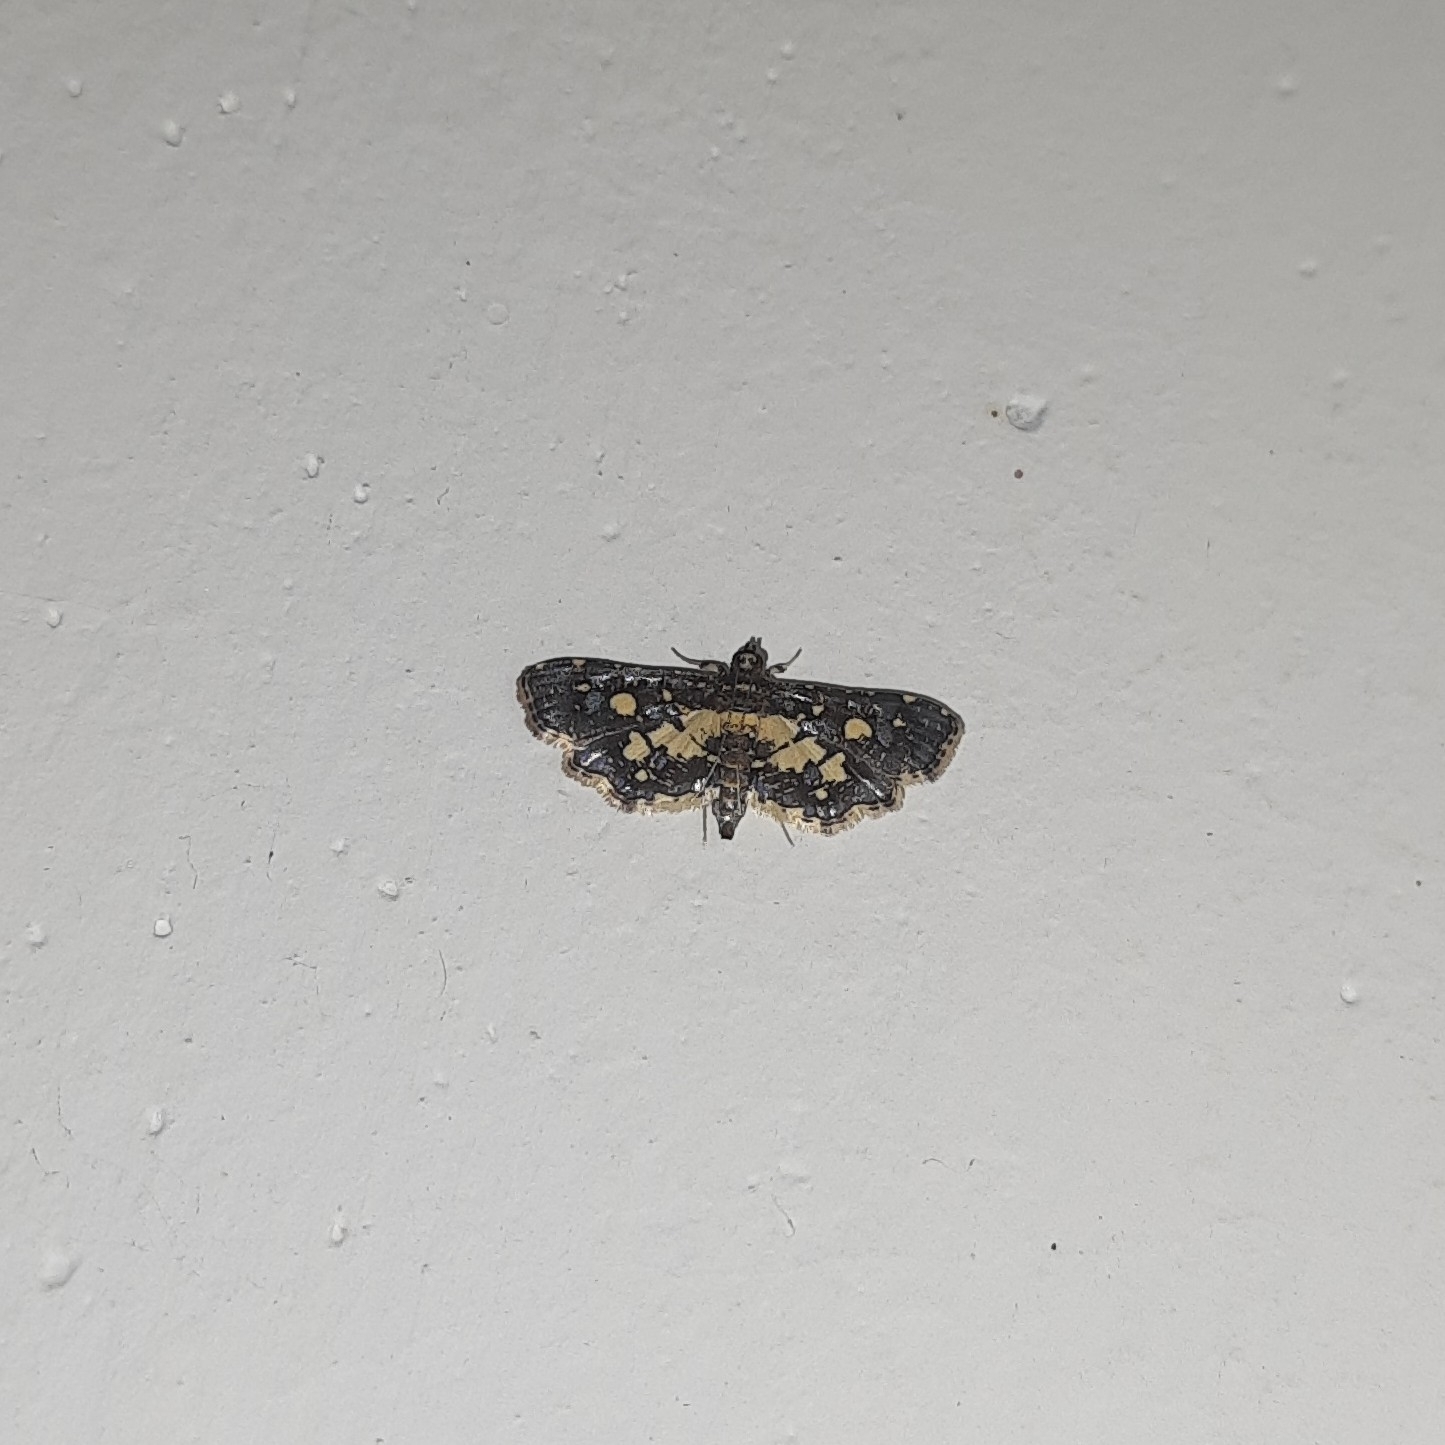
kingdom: Animalia
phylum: Arthropoda
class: Insecta
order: Lepidoptera
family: Crambidae
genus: Eurrhyparodes
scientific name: Eurrhyparodes bracteolalis
